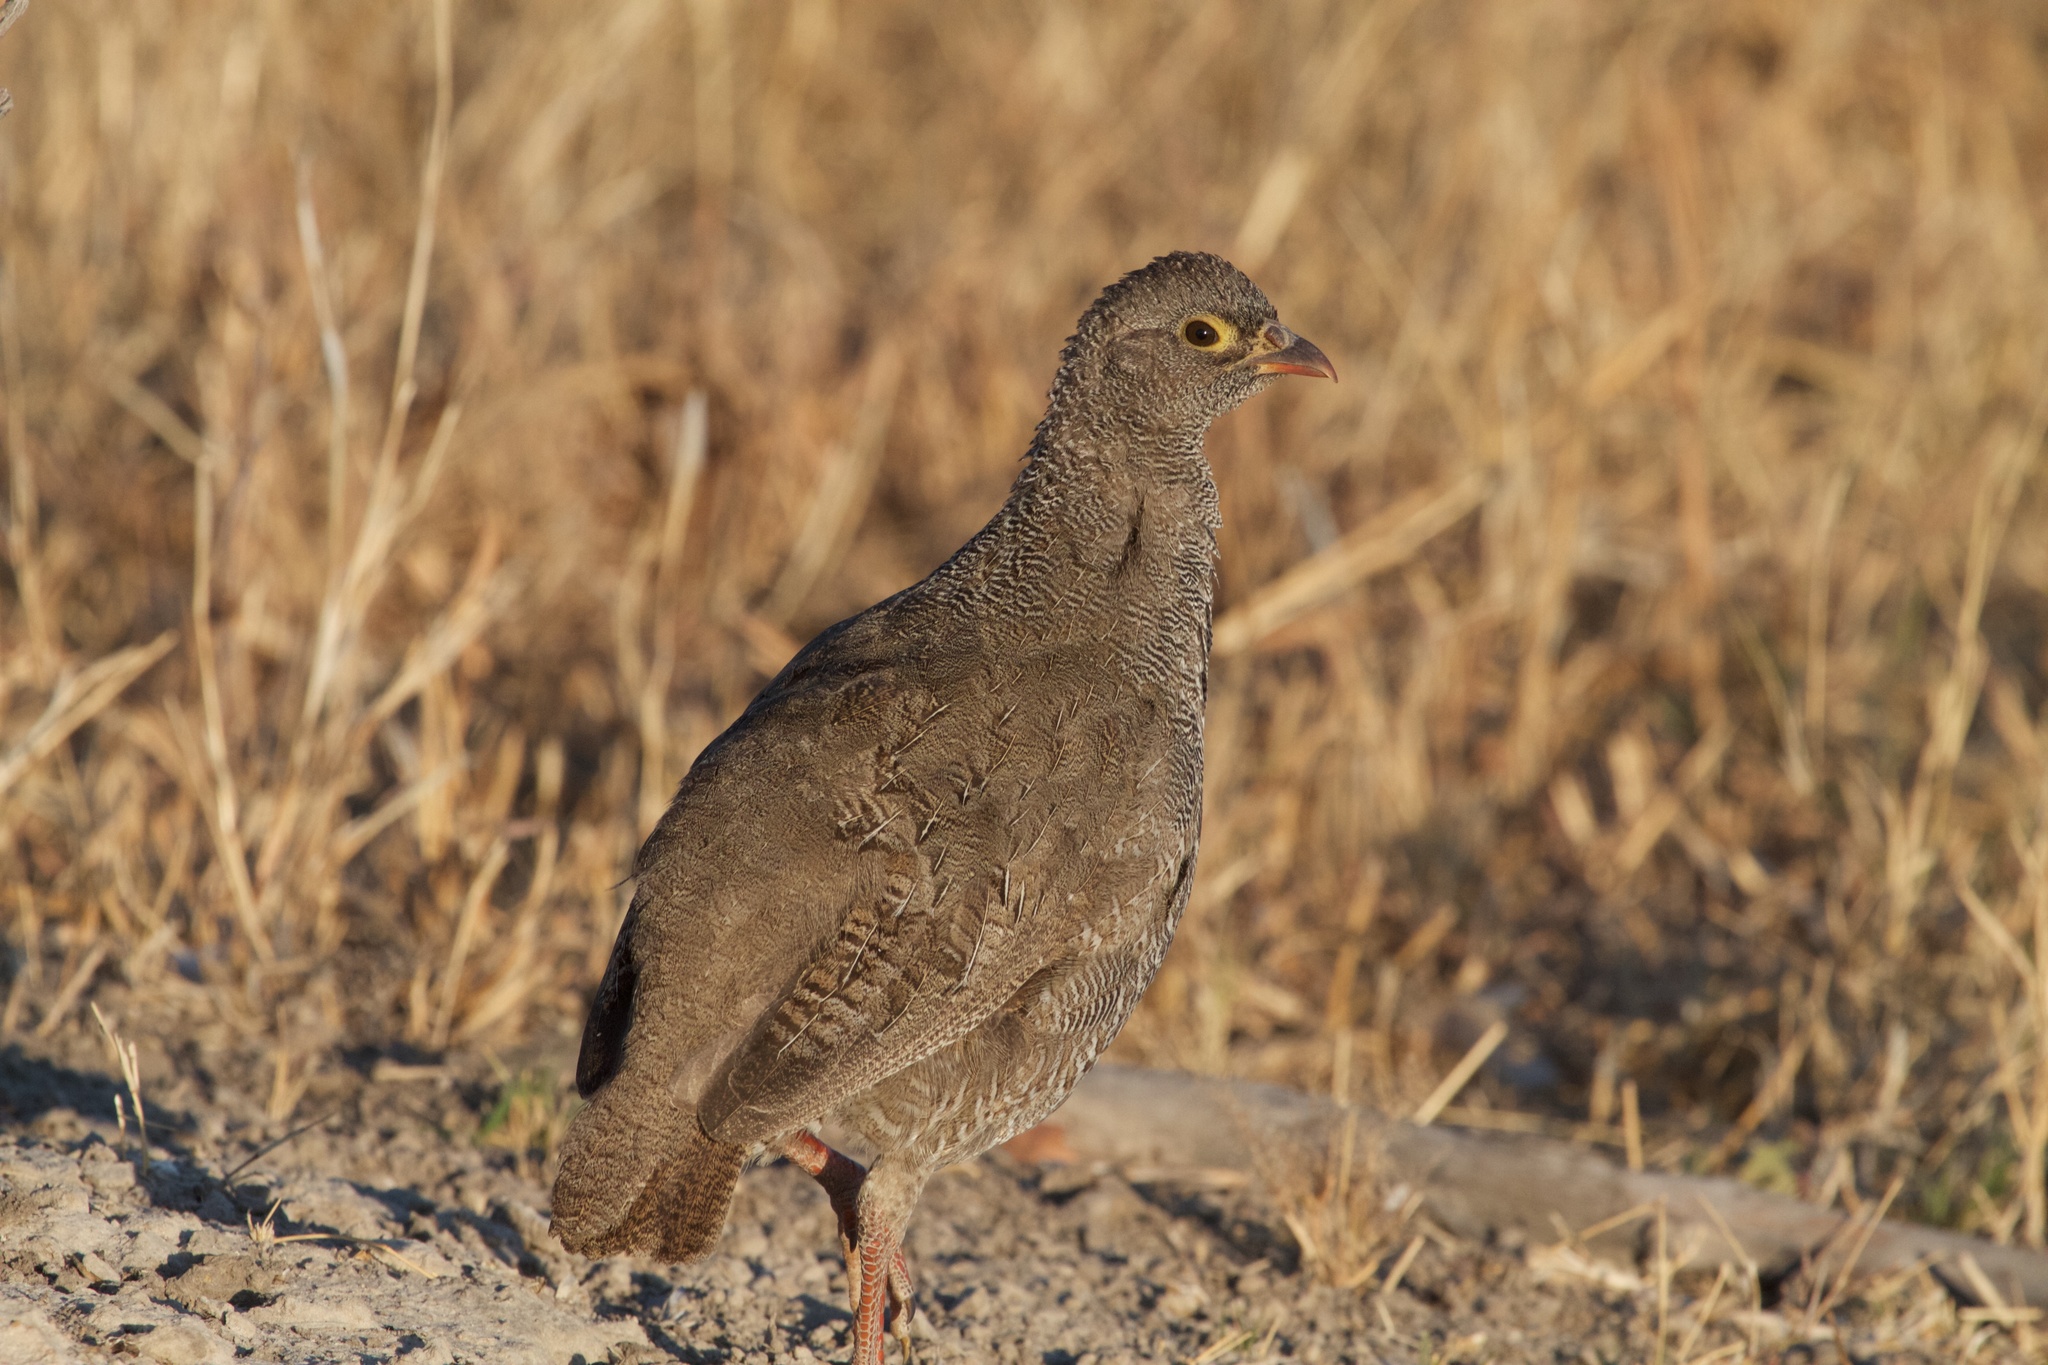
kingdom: Animalia
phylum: Chordata
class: Aves
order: Galliformes
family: Phasianidae
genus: Pternistis
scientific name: Pternistis adspersus
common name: Red-billed spurfowl
